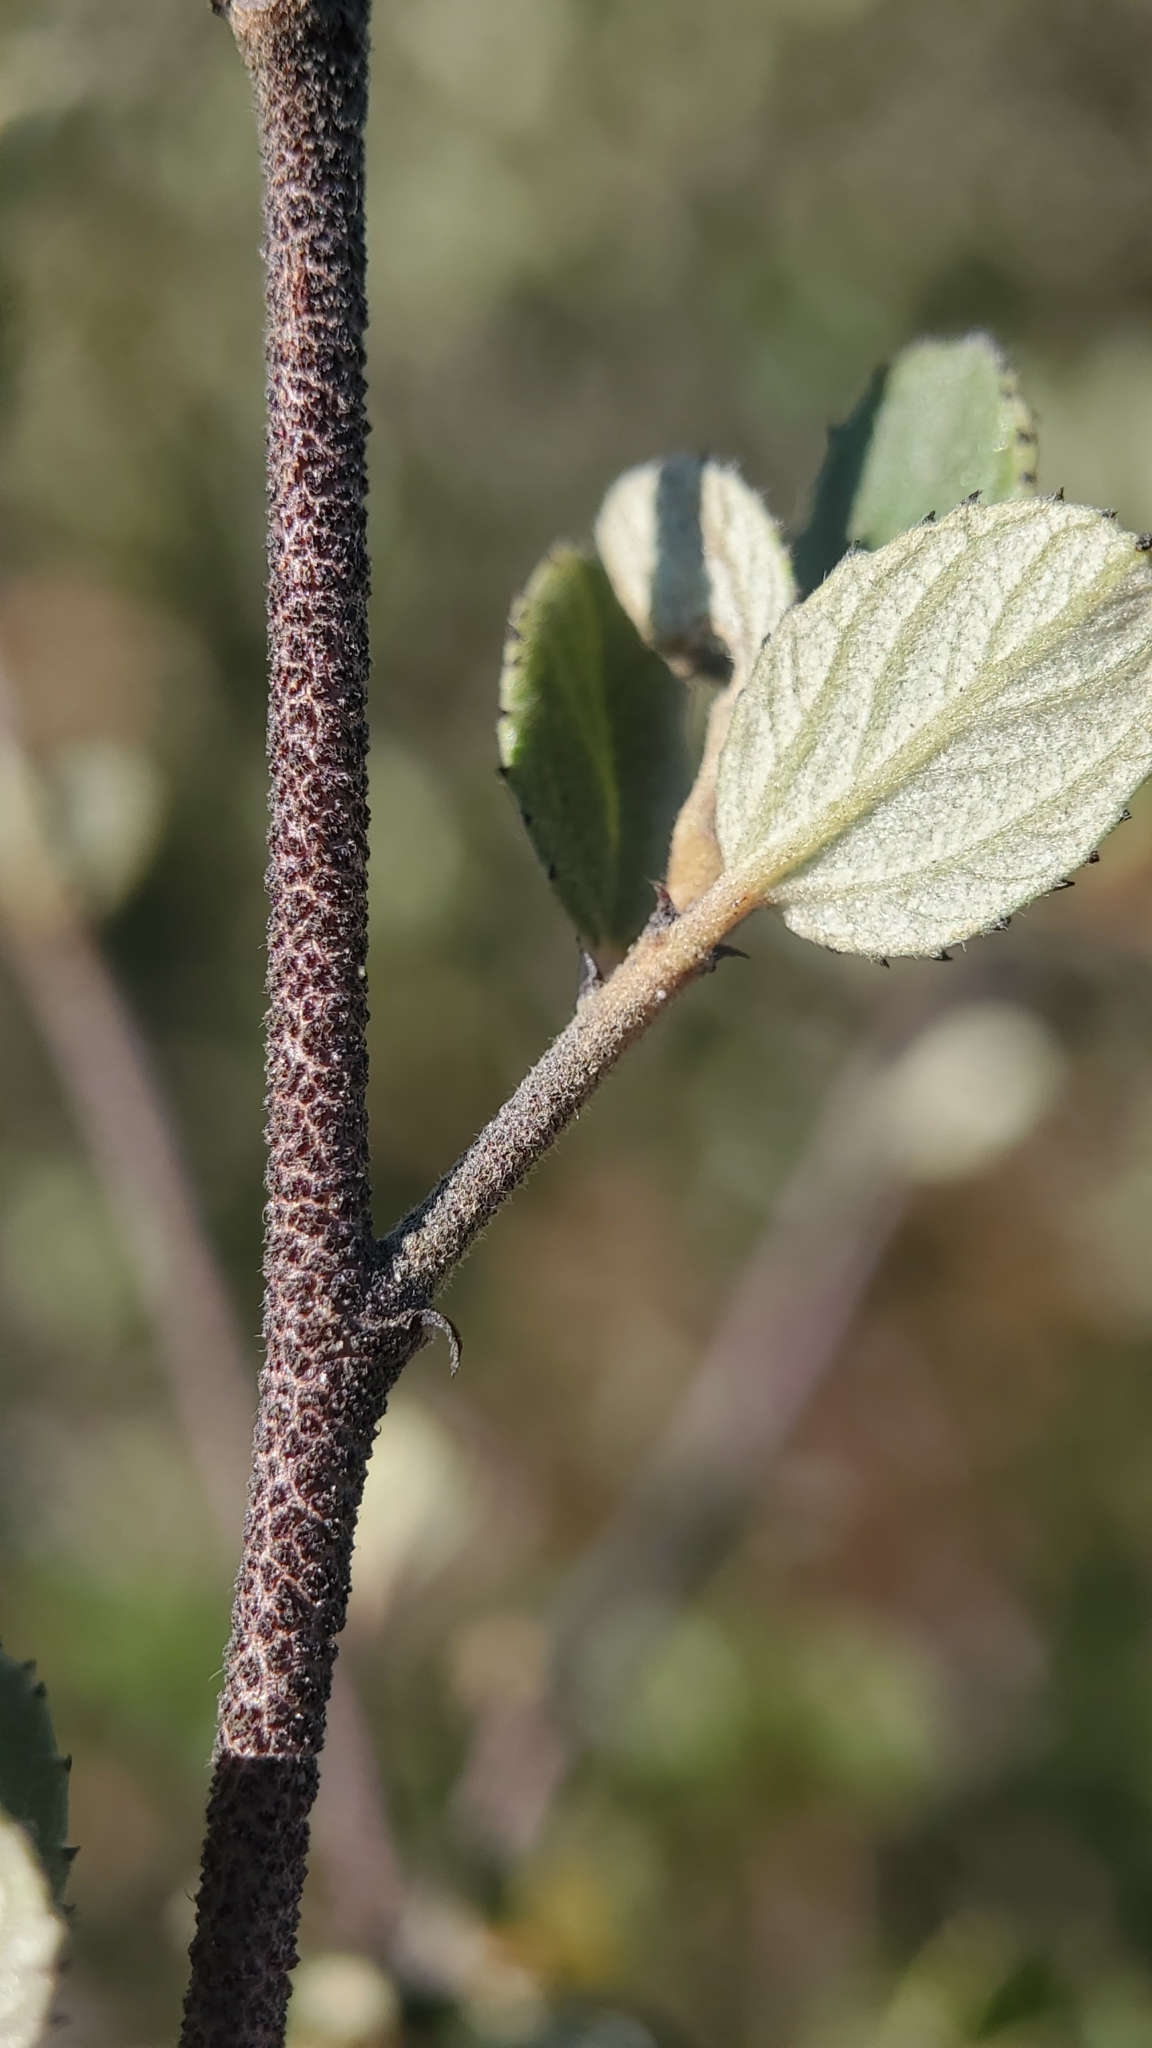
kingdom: Plantae
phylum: Tracheophyta
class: Magnoliopsida
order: Rosales
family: Rhamnaceae
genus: Ceanothus
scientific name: Ceanothus tomentosus
